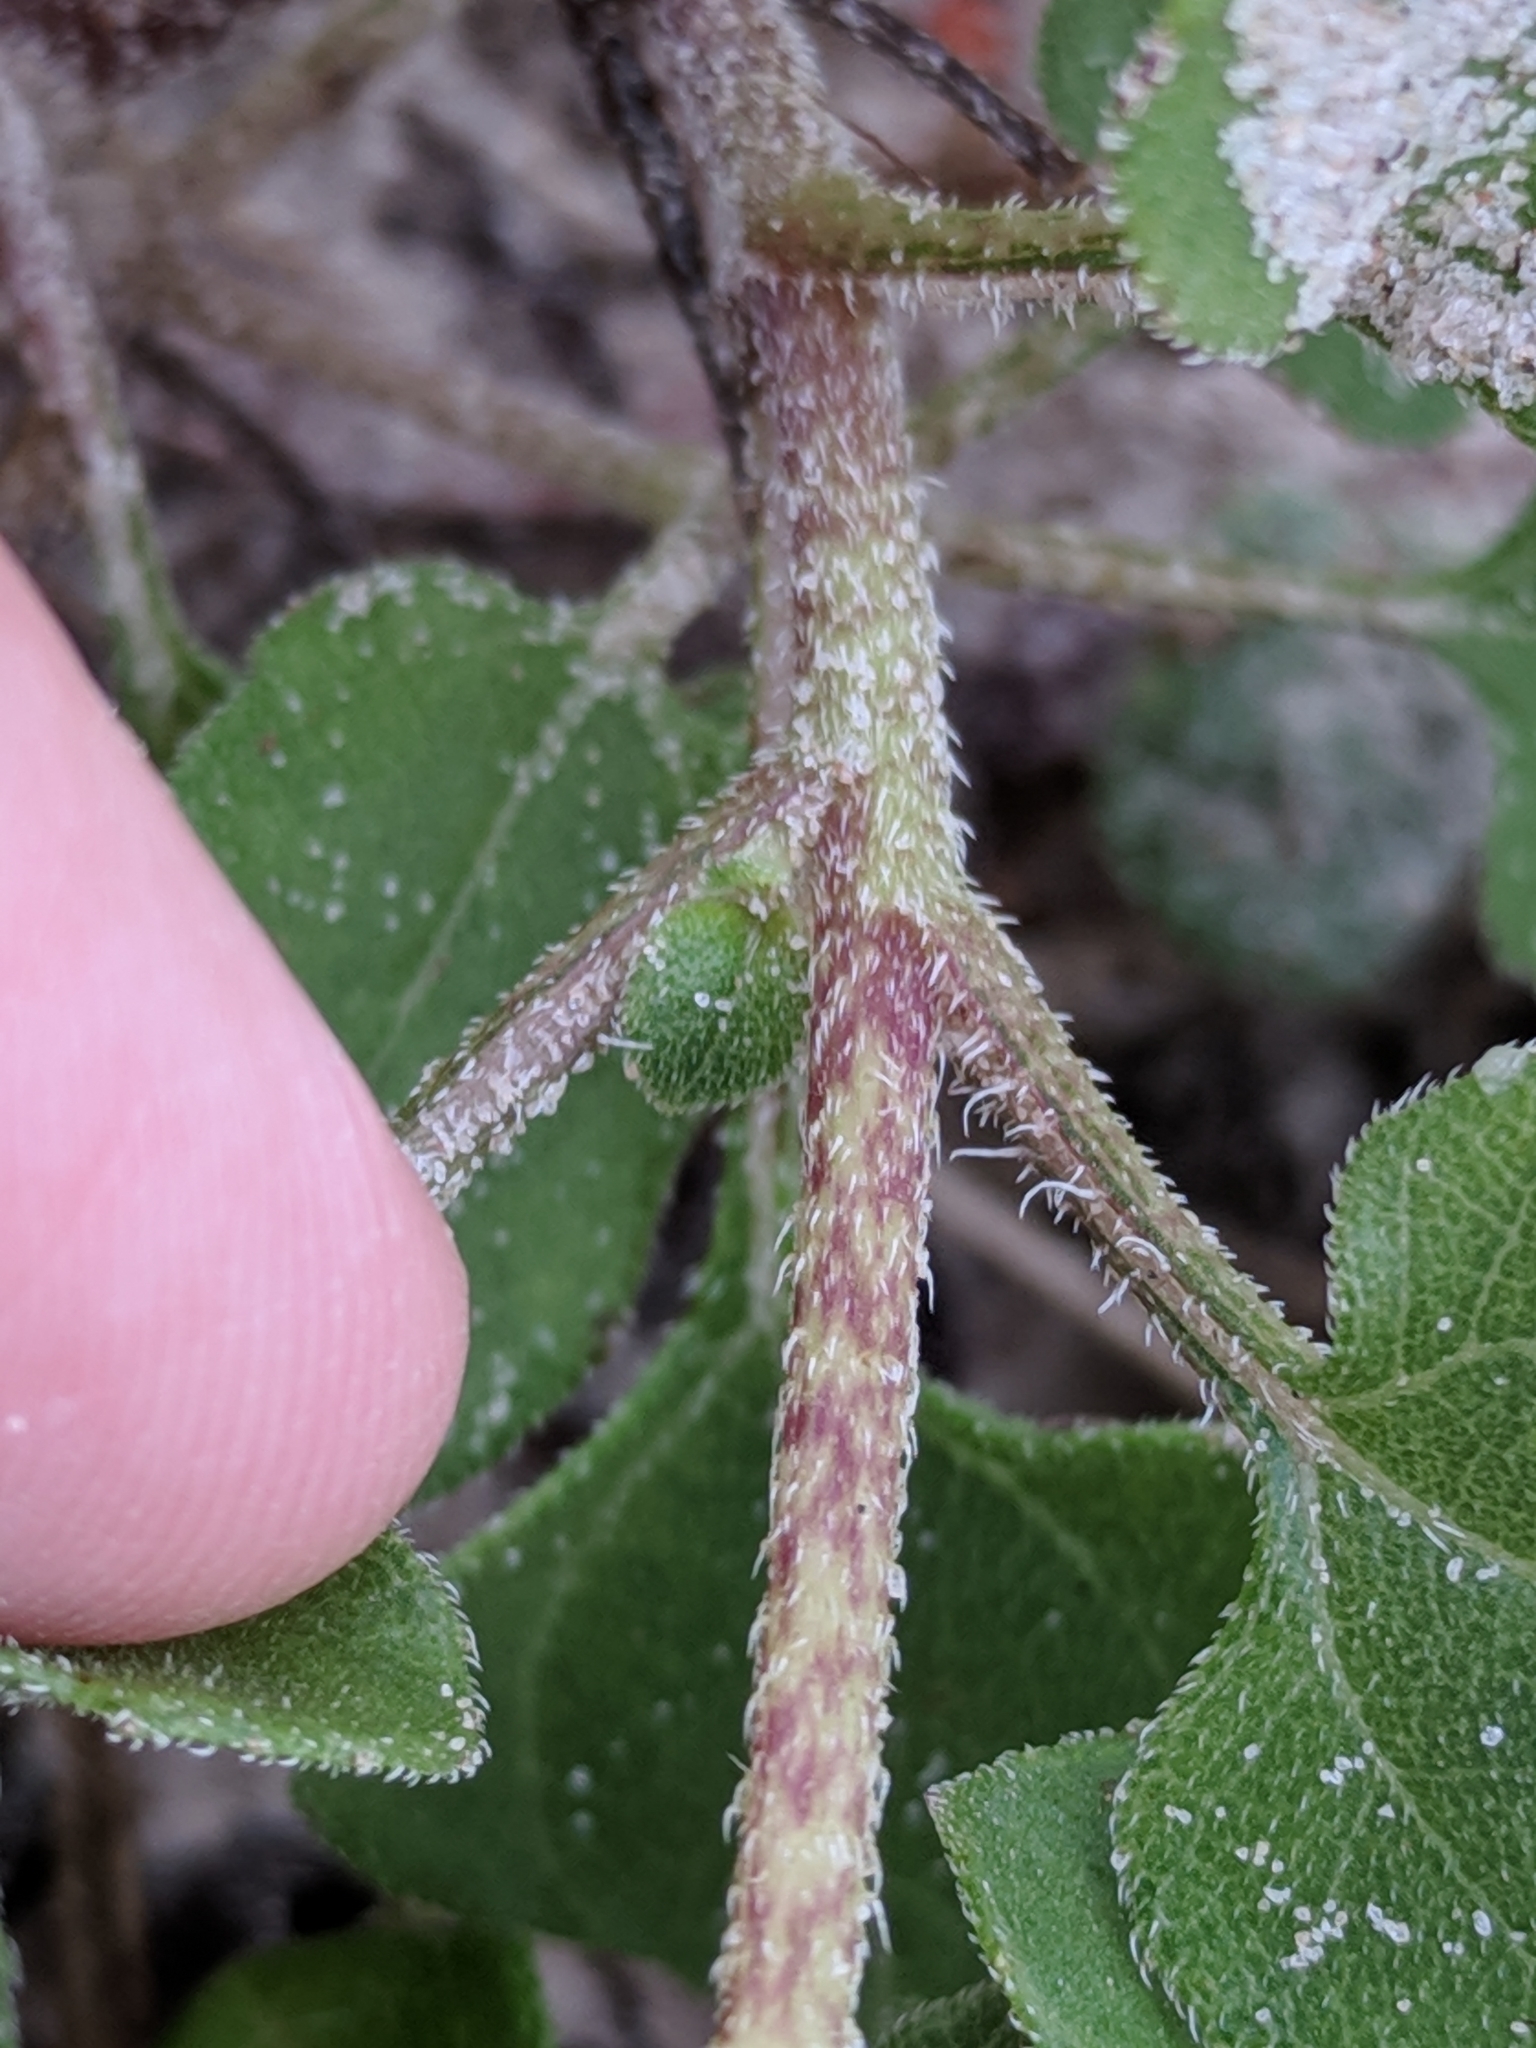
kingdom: Plantae
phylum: Tracheophyta
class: Magnoliopsida
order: Asterales
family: Asteraceae
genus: Helianthus
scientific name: Helianthus debilis
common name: Weak sunflower
